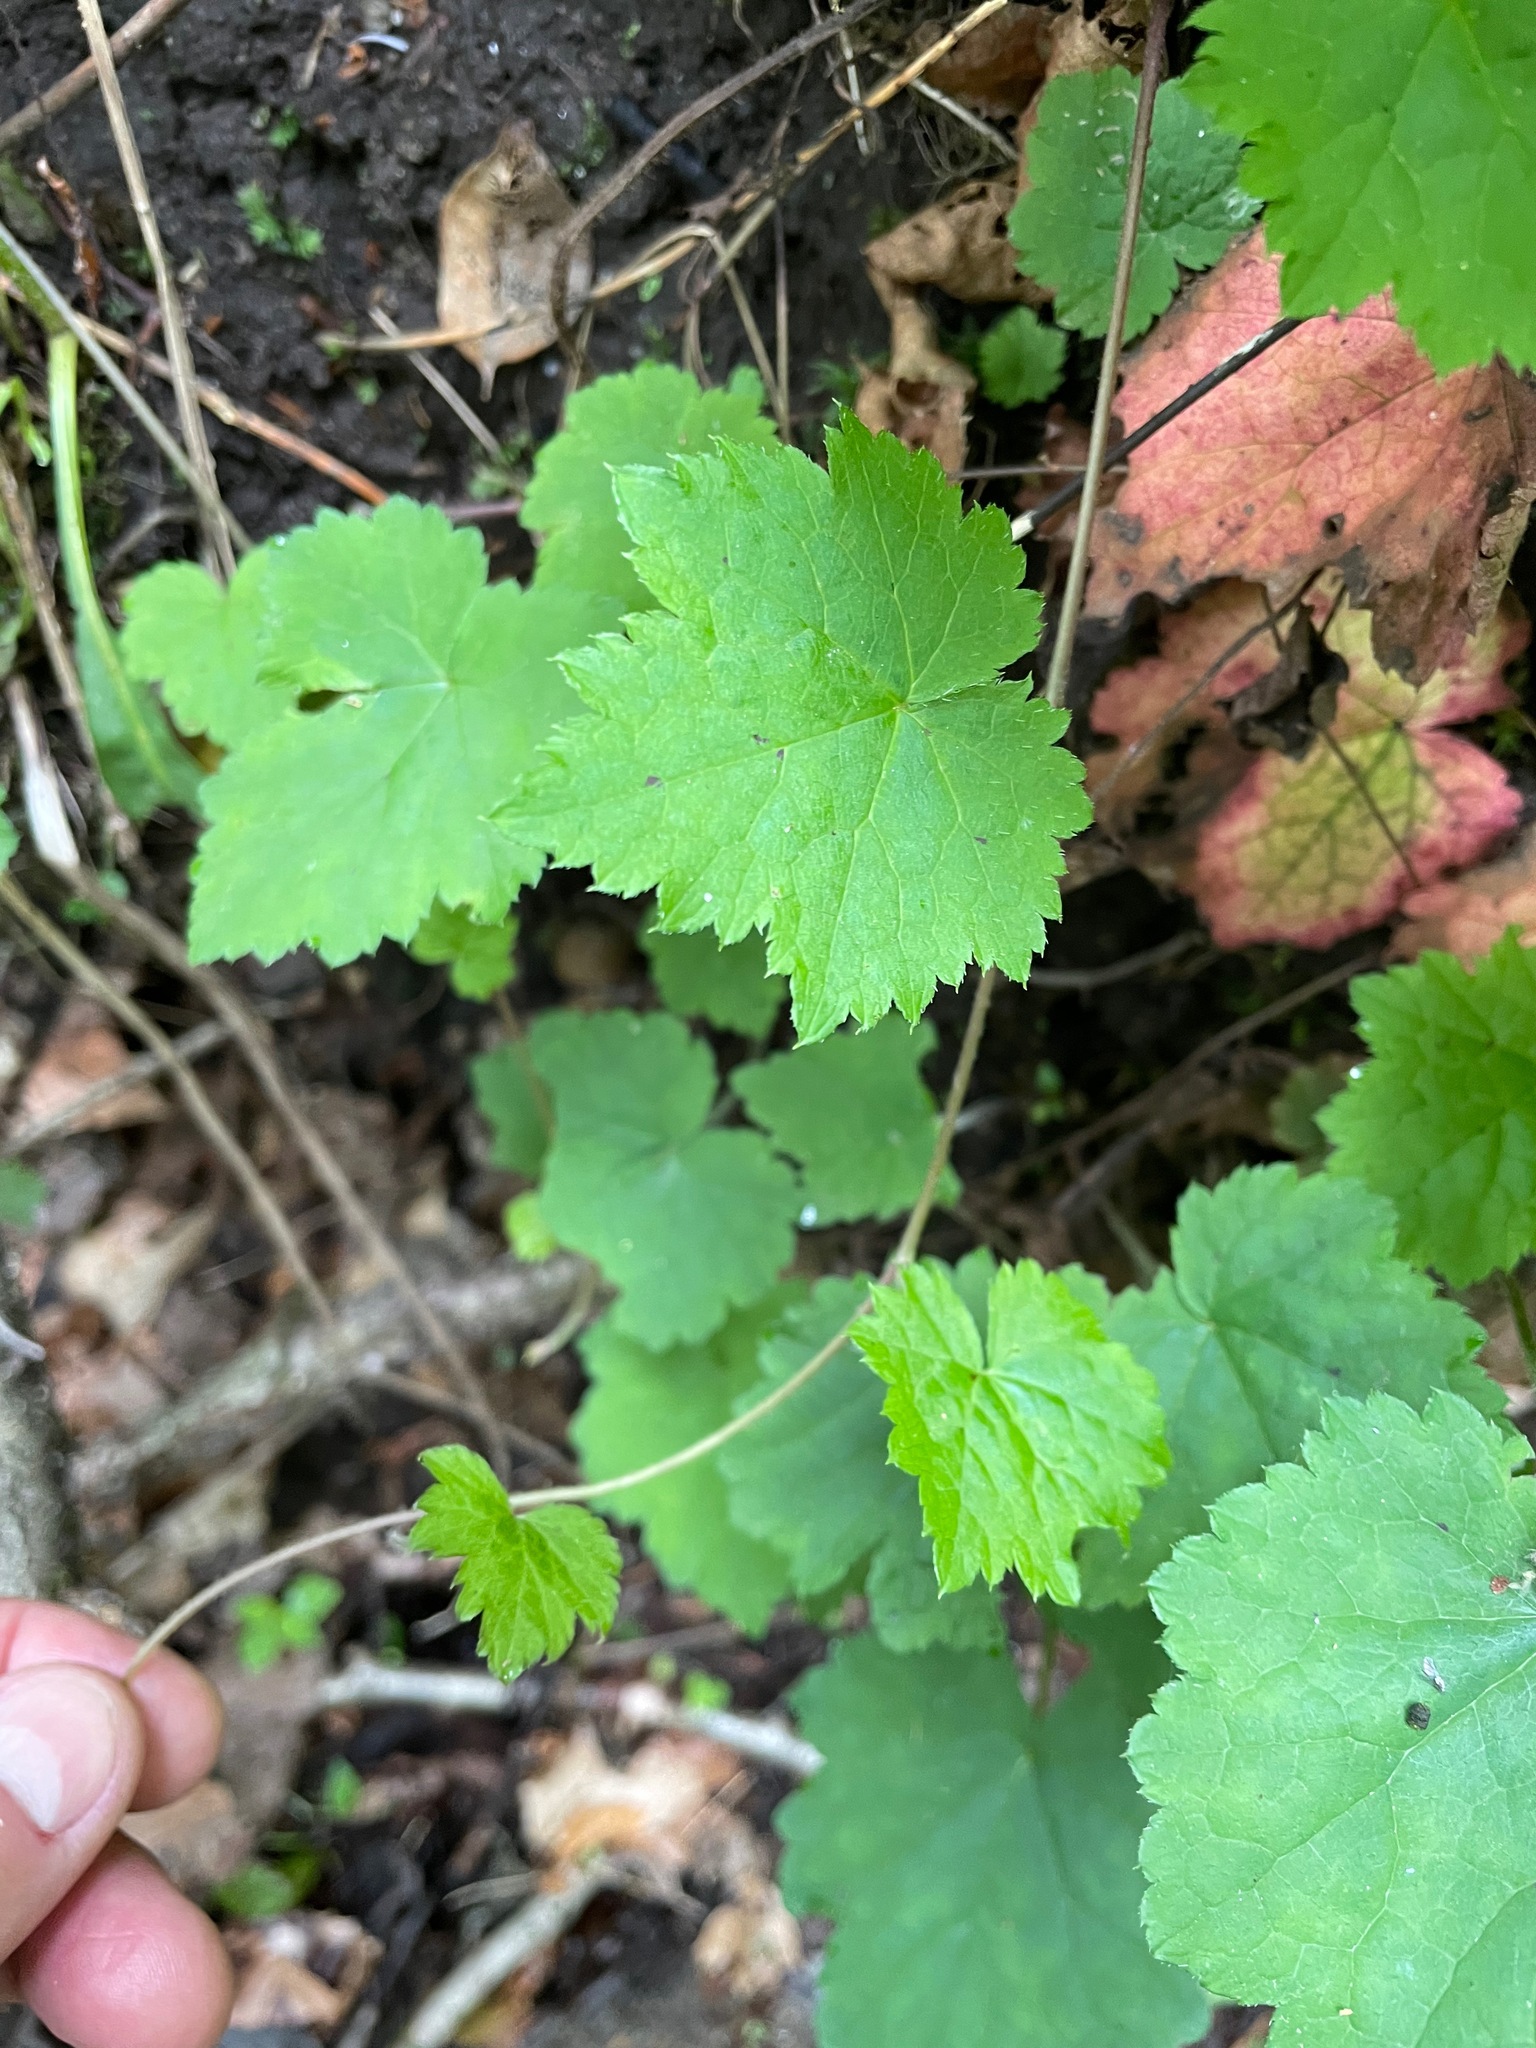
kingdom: Plantae
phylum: Tracheophyta
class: Magnoliopsida
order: Saxifragales
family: Saxifragaceae
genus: Tiarella
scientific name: Tiarella stolonifera
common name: Stoloniferous foamflower
